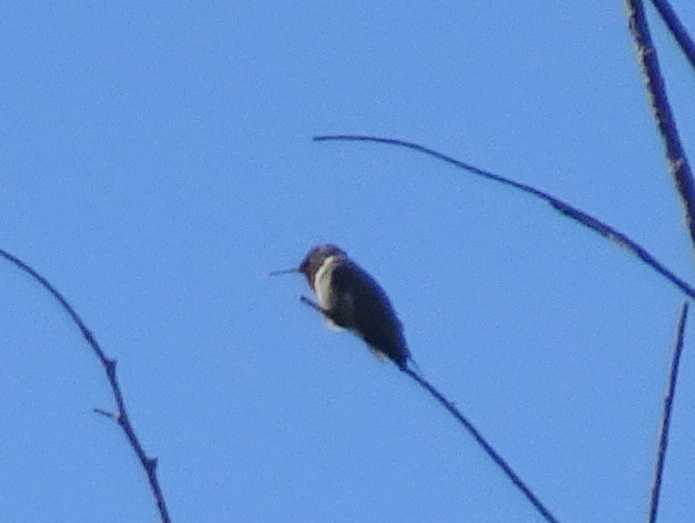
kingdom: Animalia
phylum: Chordata
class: Aves
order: Apodiformes
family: Trochilidae
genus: Archilochus
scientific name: Archilochus colubris
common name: Ruby-throated hummingbird
